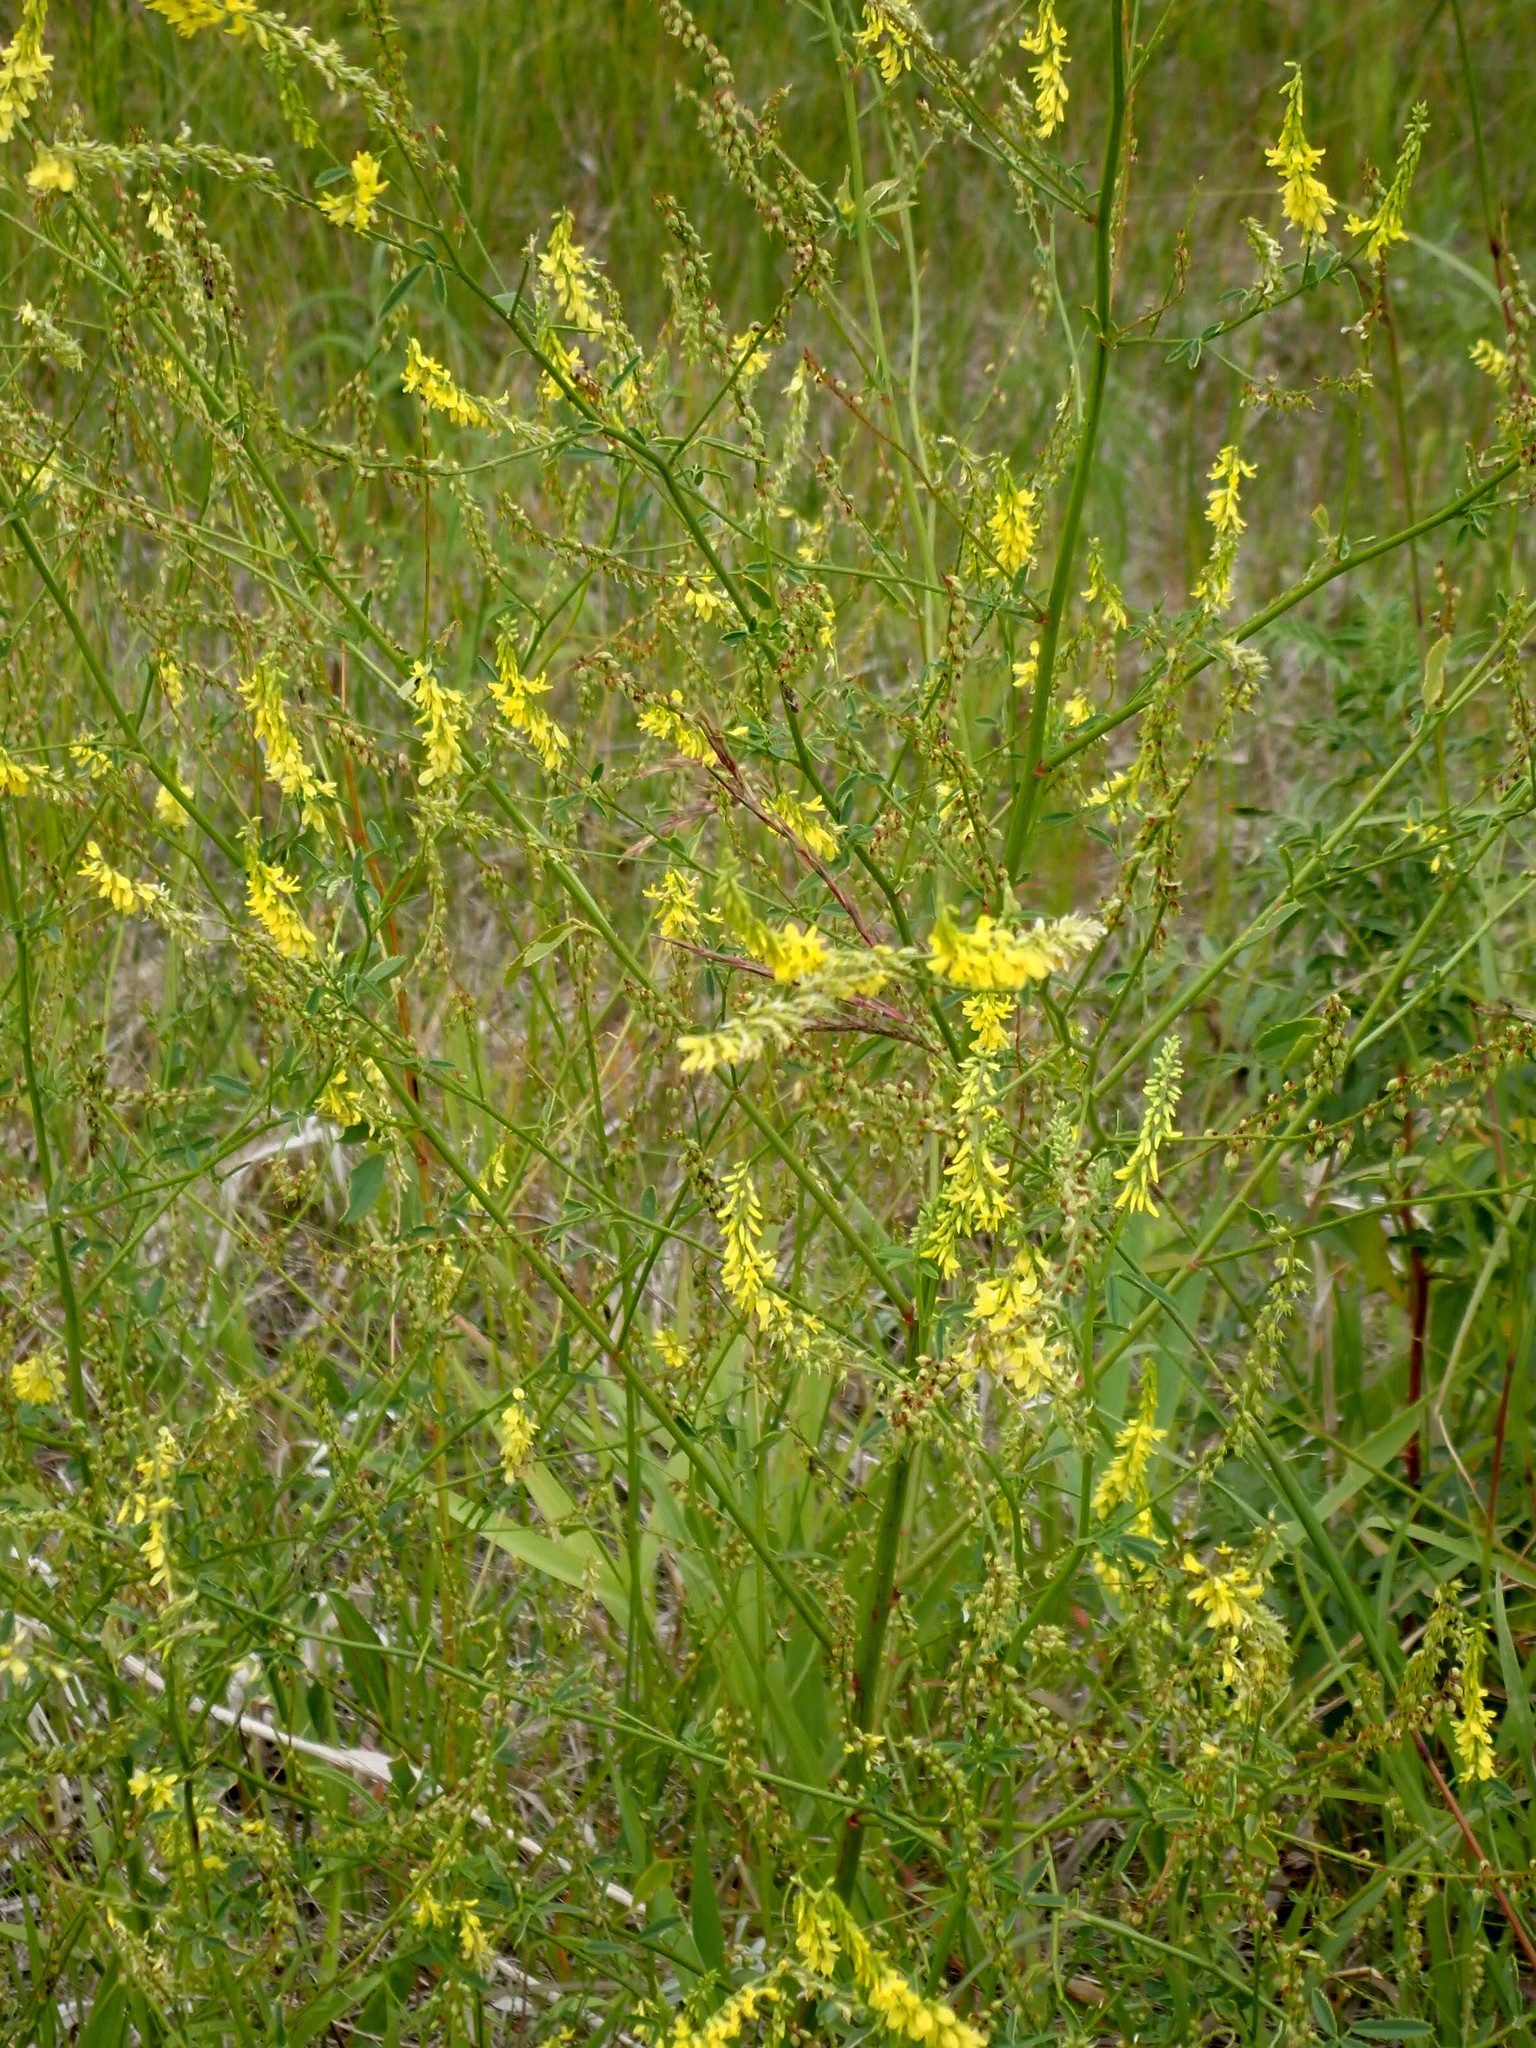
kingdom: Plantae
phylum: Tracheophyta
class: Magnoliopsida
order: Fabales
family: Fabaceae
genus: Melilotus
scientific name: Melilotus officinalis
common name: Sweetclover
